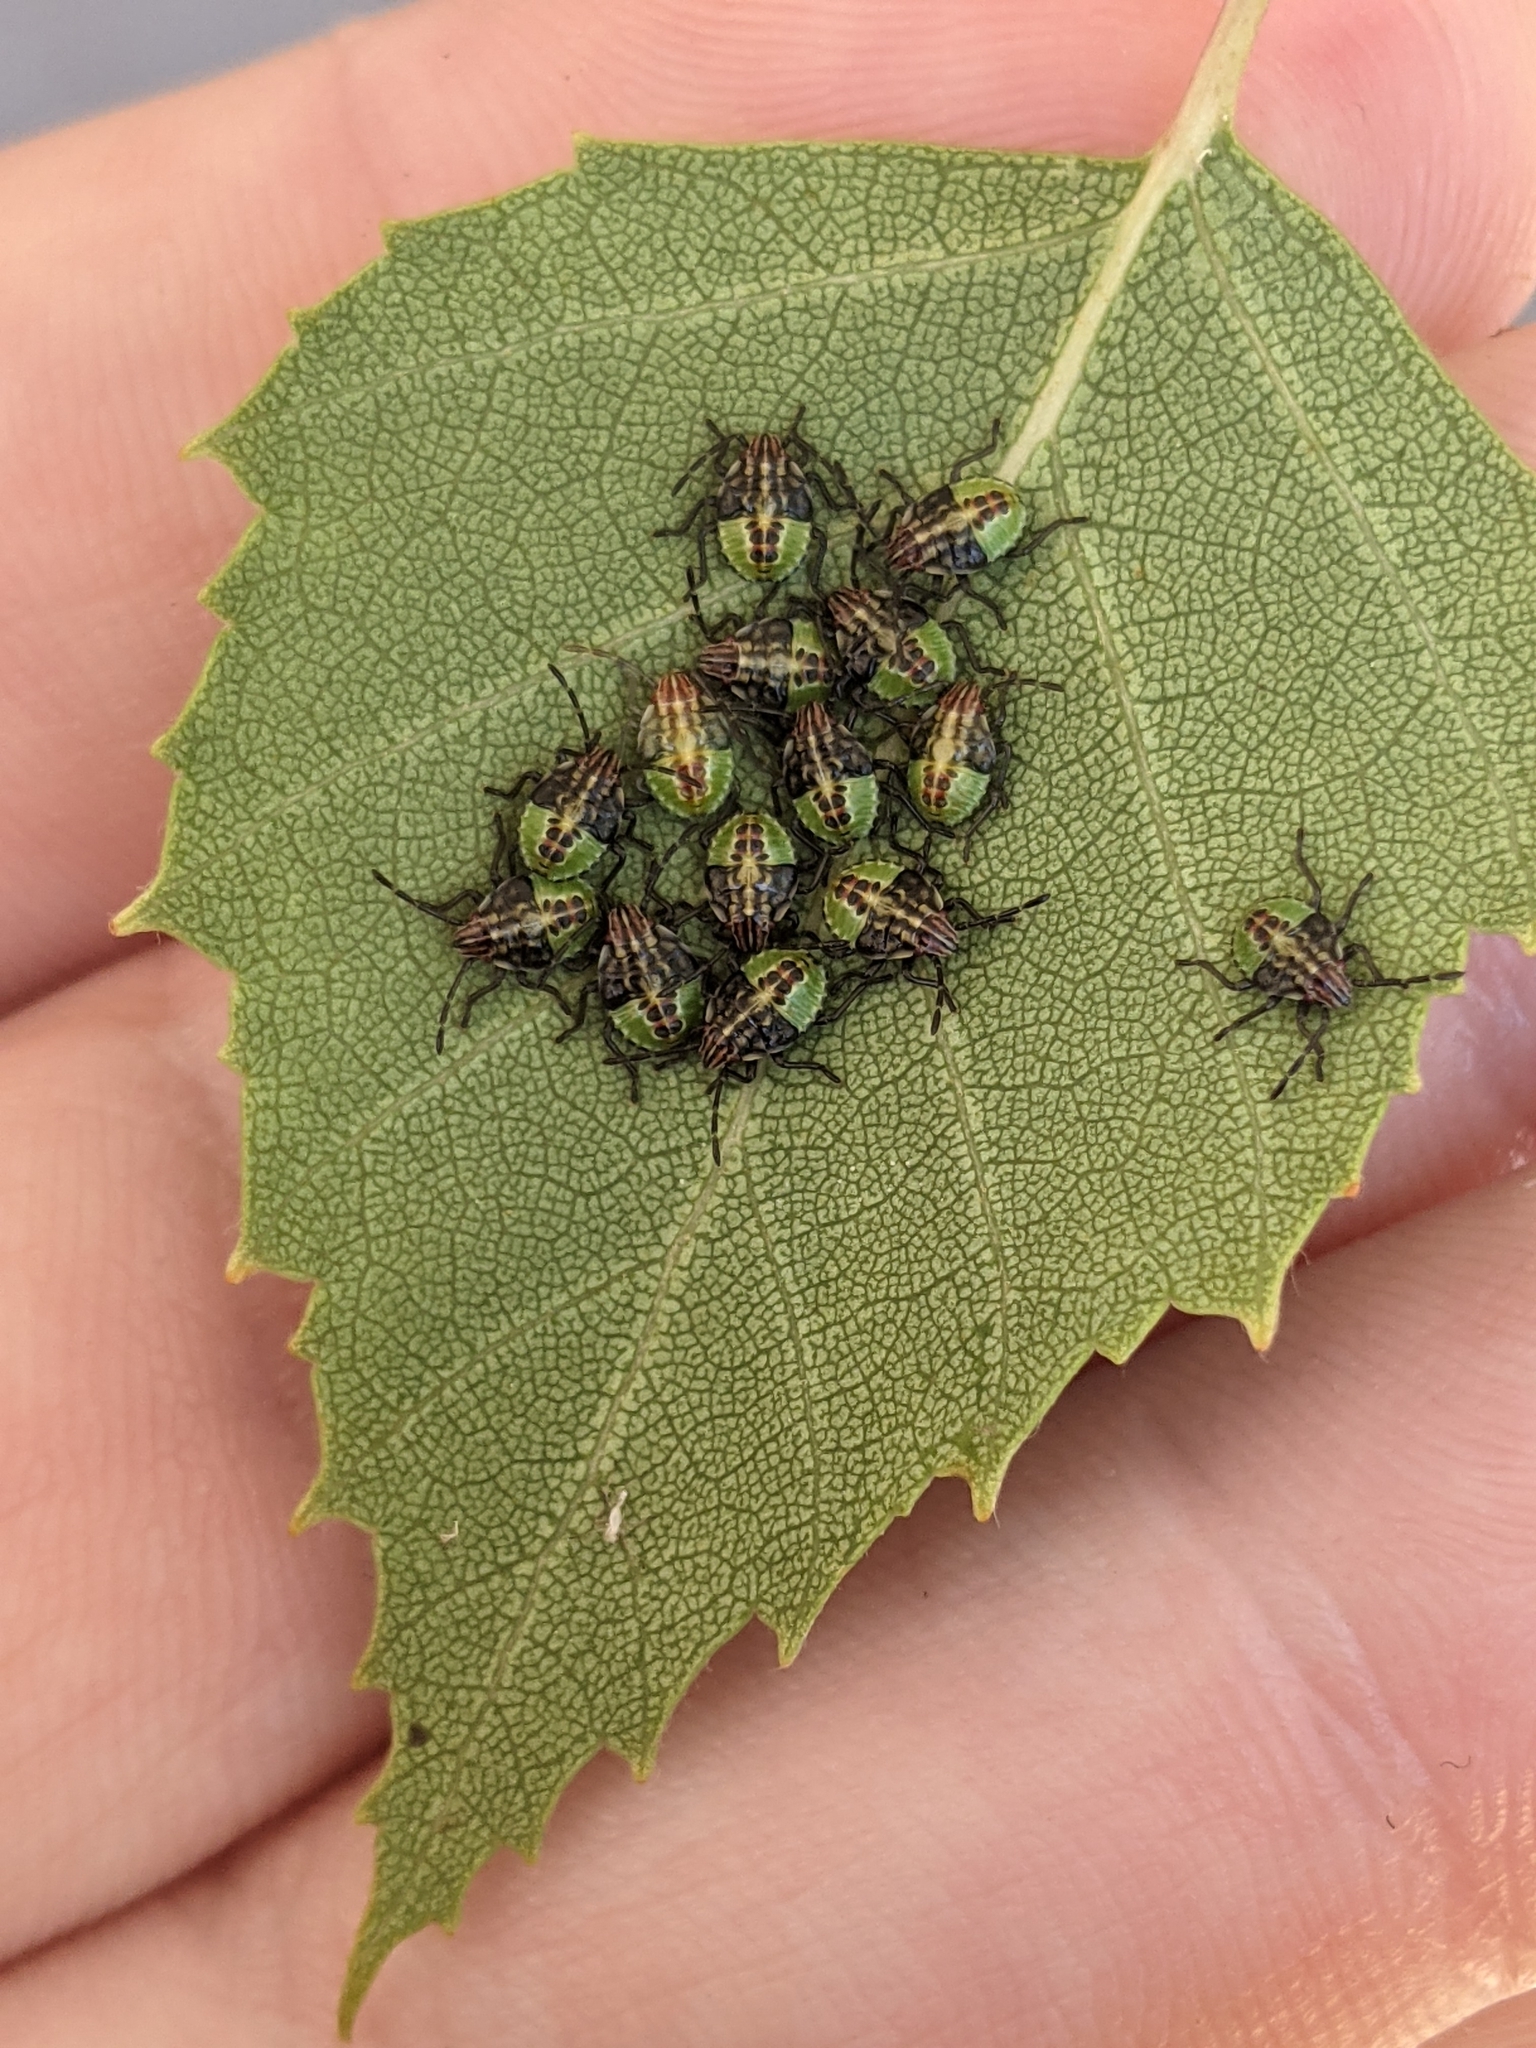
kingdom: Animalia
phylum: Arthropoda
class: Insecta
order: Hemiptera
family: Acanthosomatidae
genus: Elasmucha
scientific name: Elasmucha grisea
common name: Parent bug
